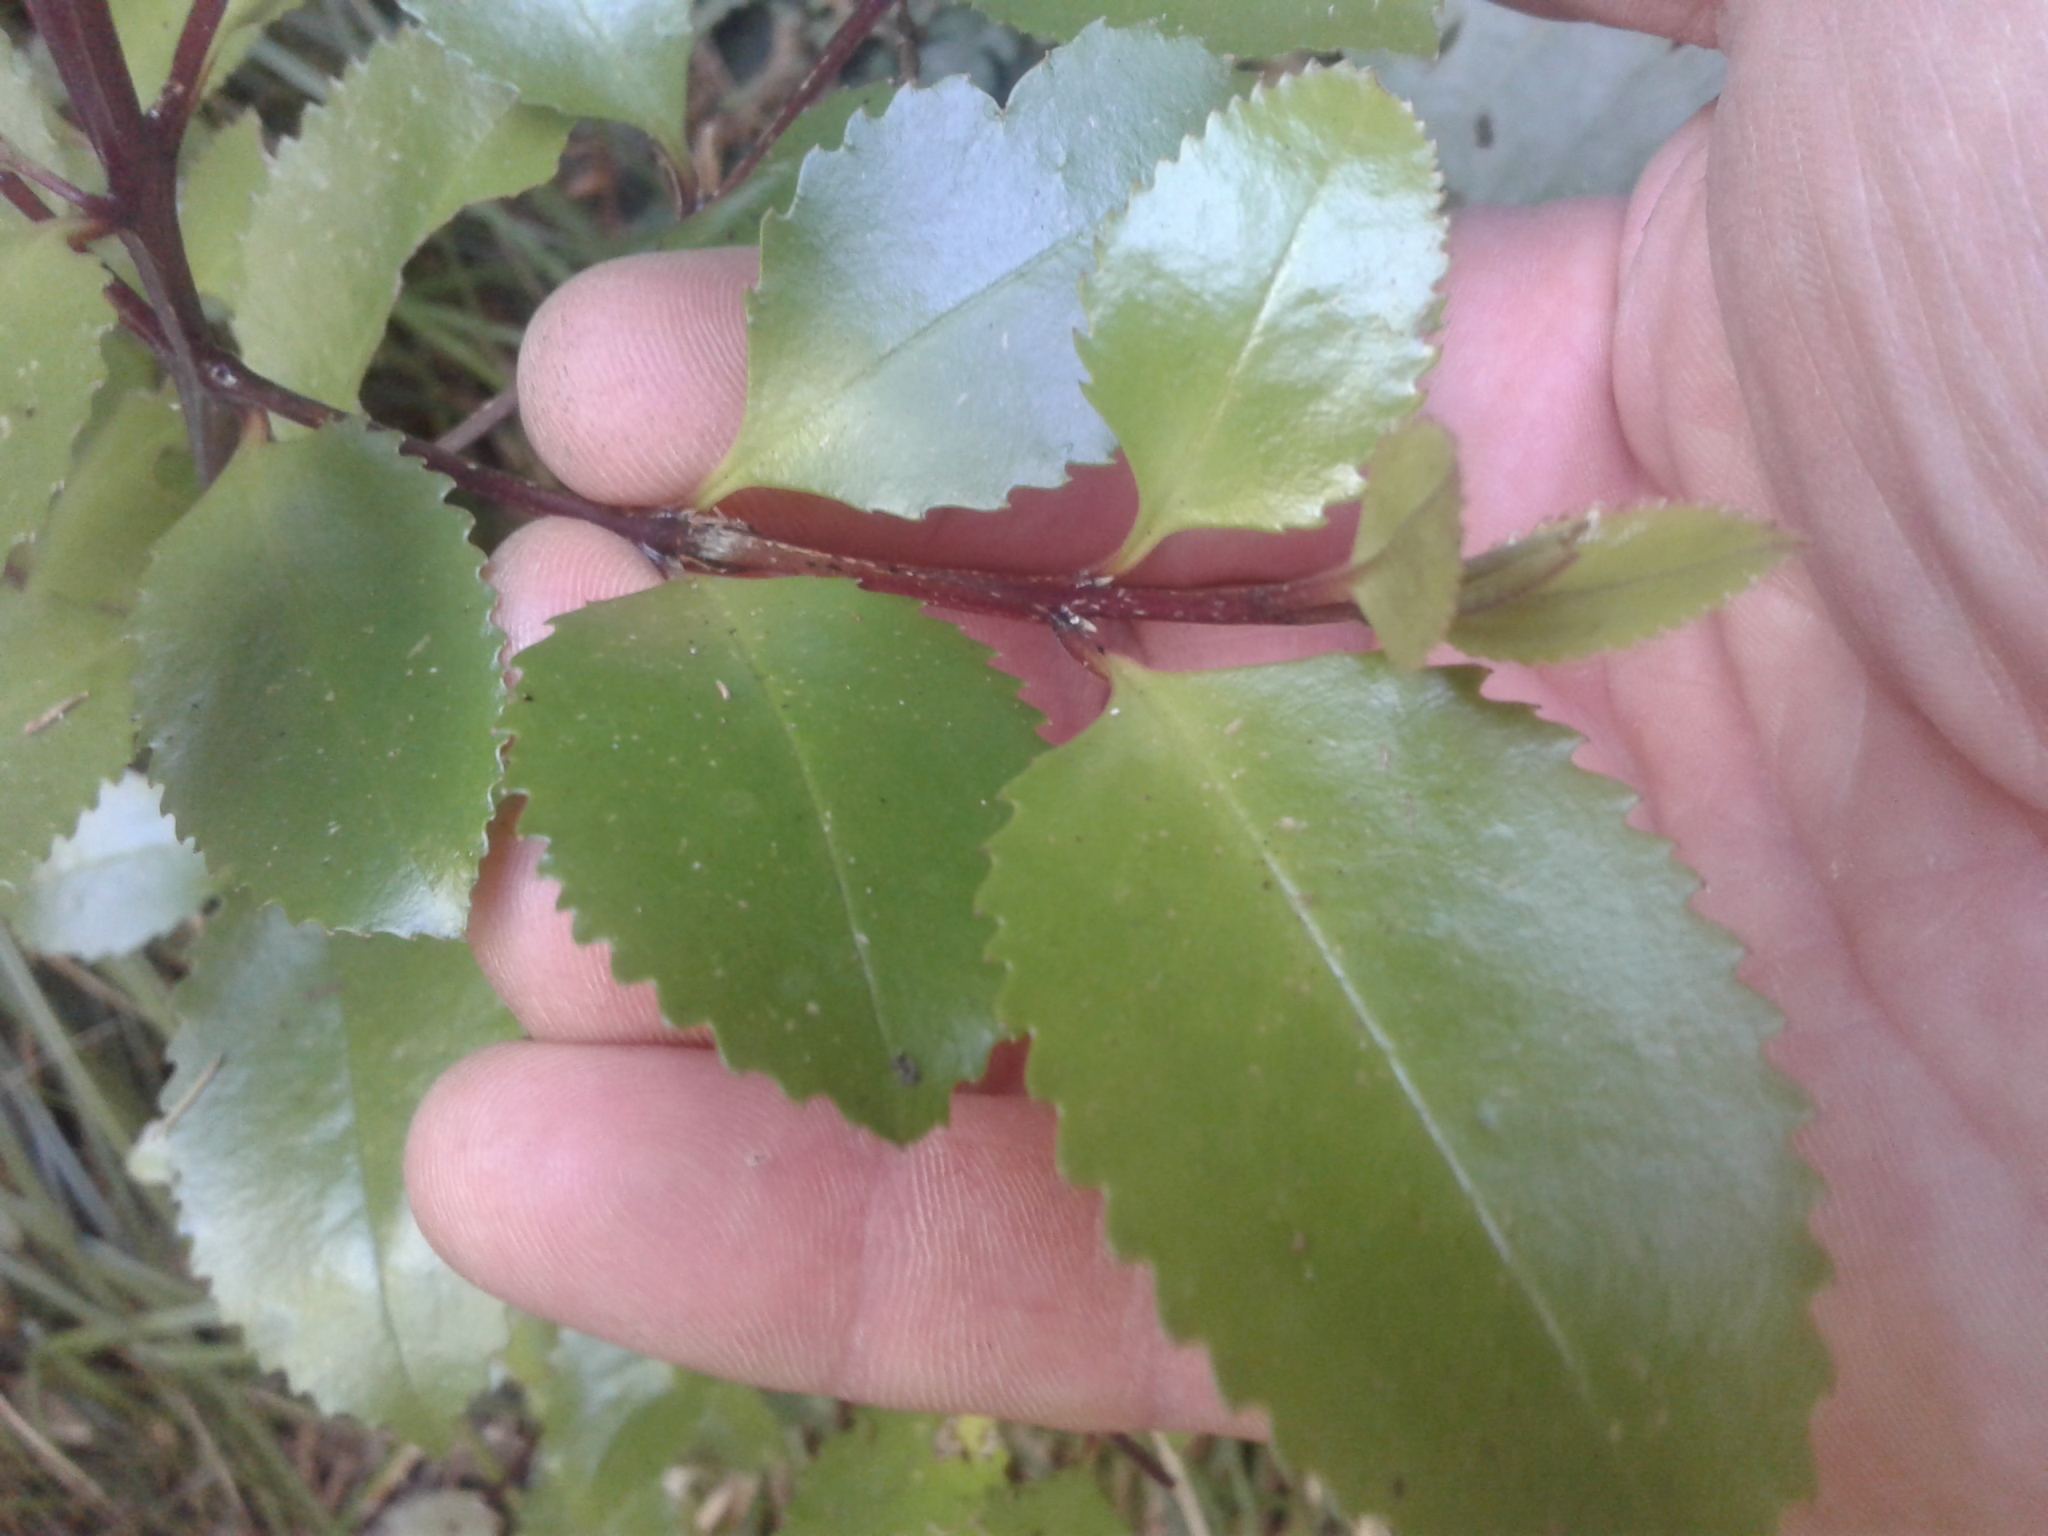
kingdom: Plantae
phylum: Tracheophyta
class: Magnoliopsida
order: Laurales
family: Atherospermataceae
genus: Laurelia
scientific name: Laurelia novae-zelandiae
